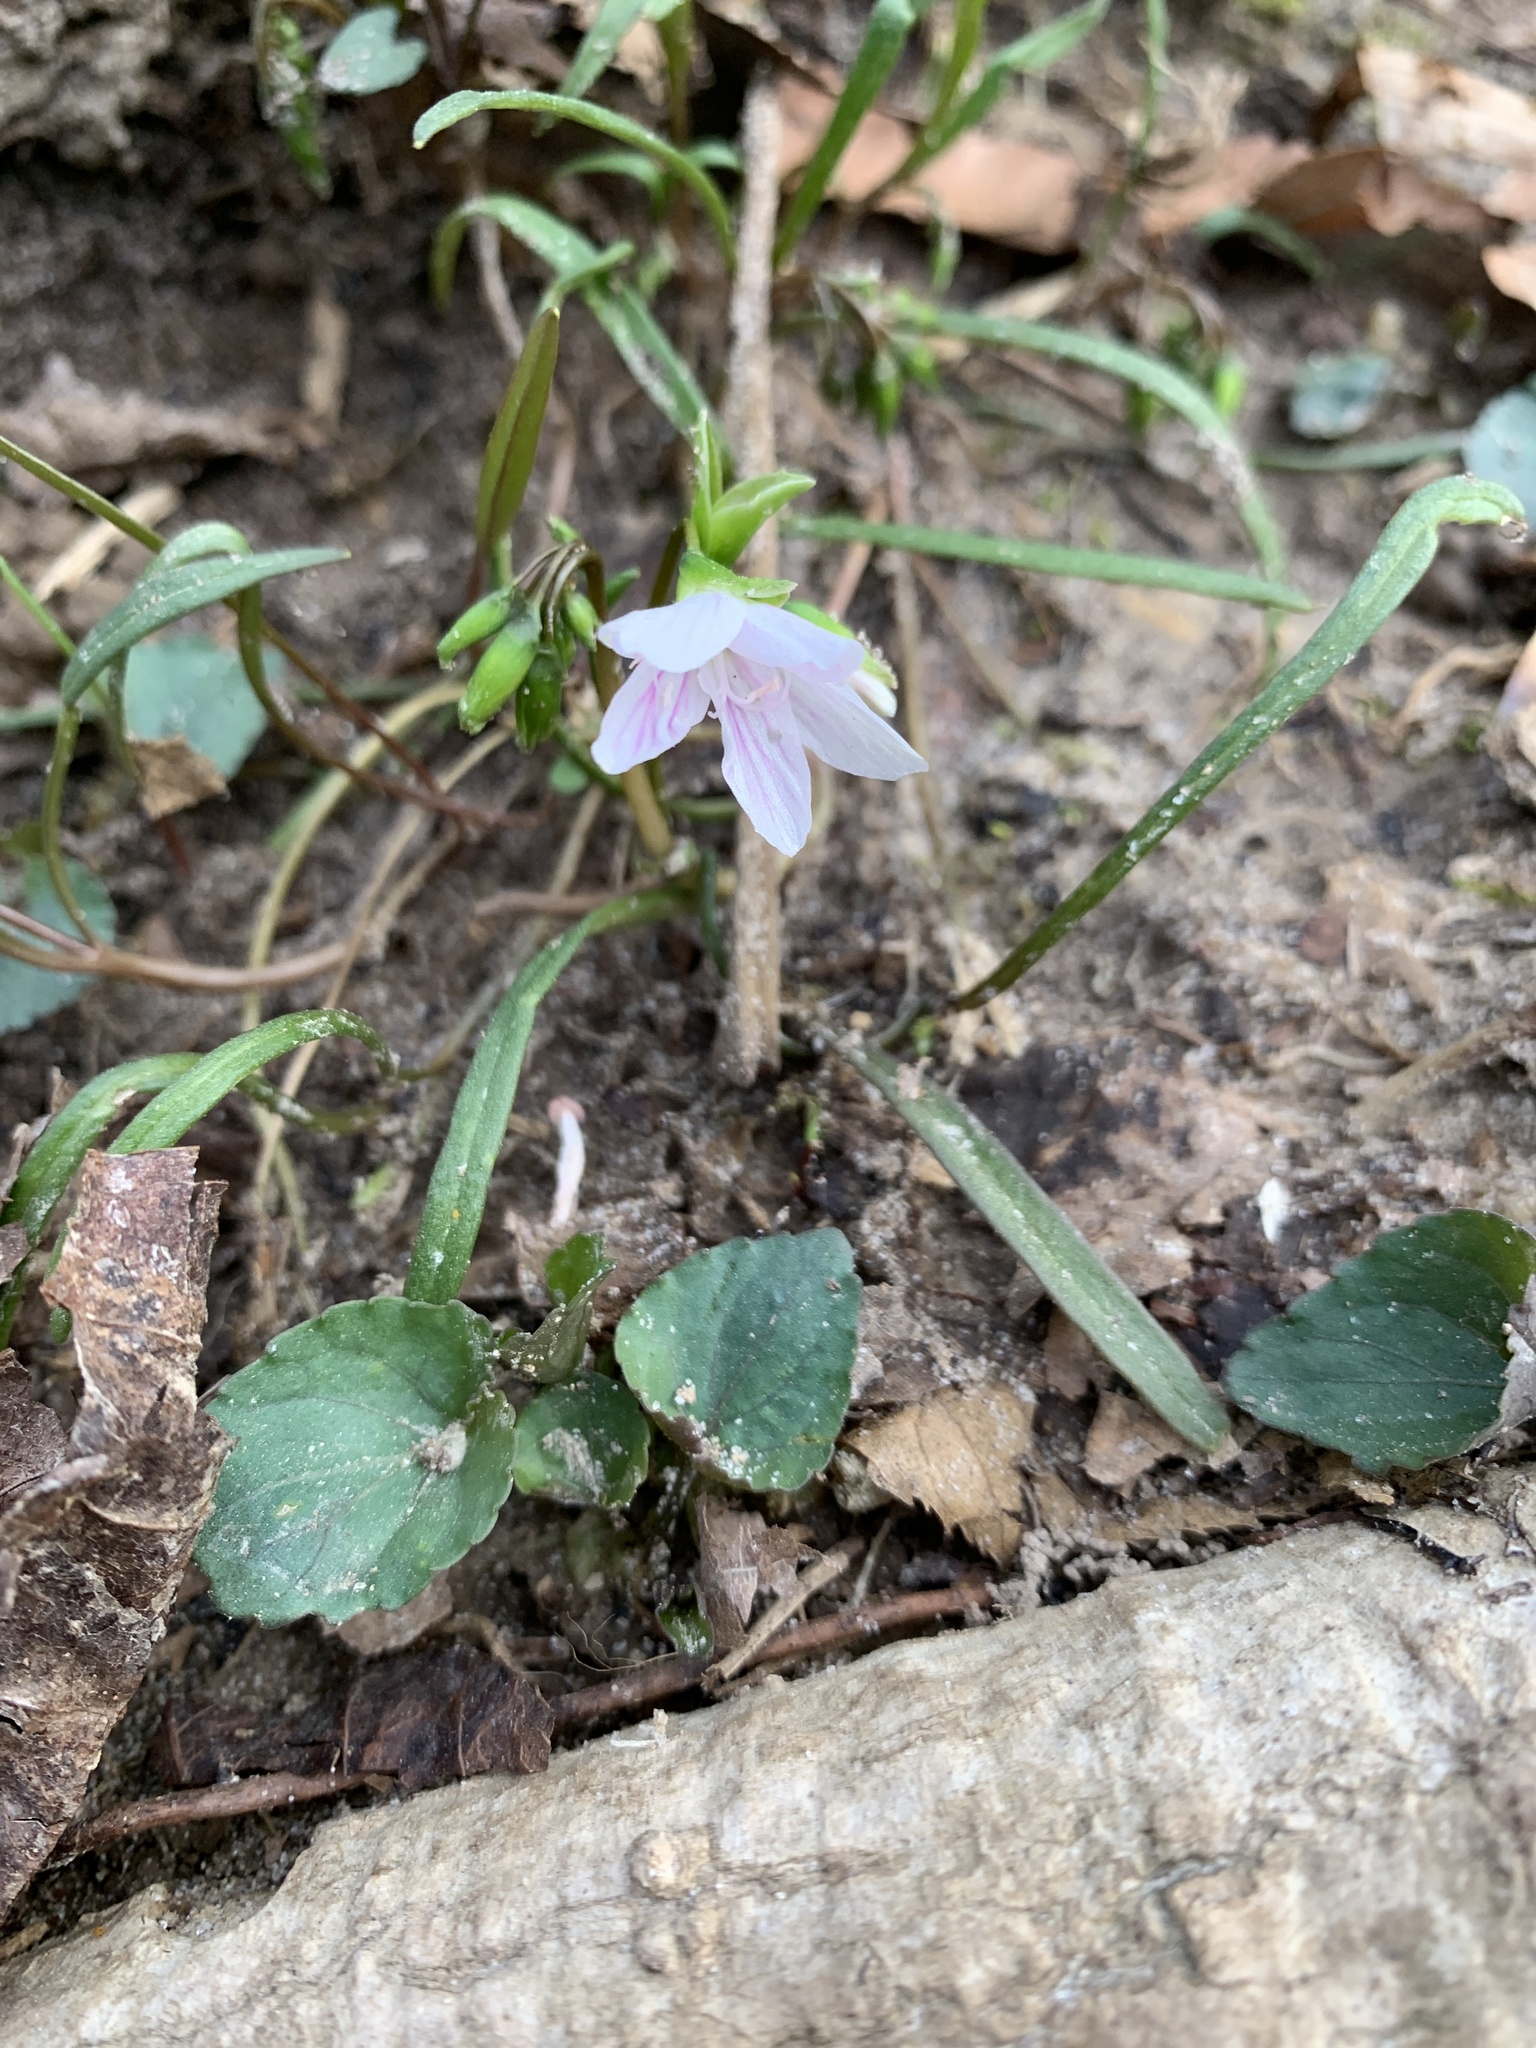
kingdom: Plantae
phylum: Tracheophyta
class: Magnoliopsida
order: Caryophyllales
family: Montiaceae
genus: Claytonia
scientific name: Claytonia virginica
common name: Virginia springbeauty
